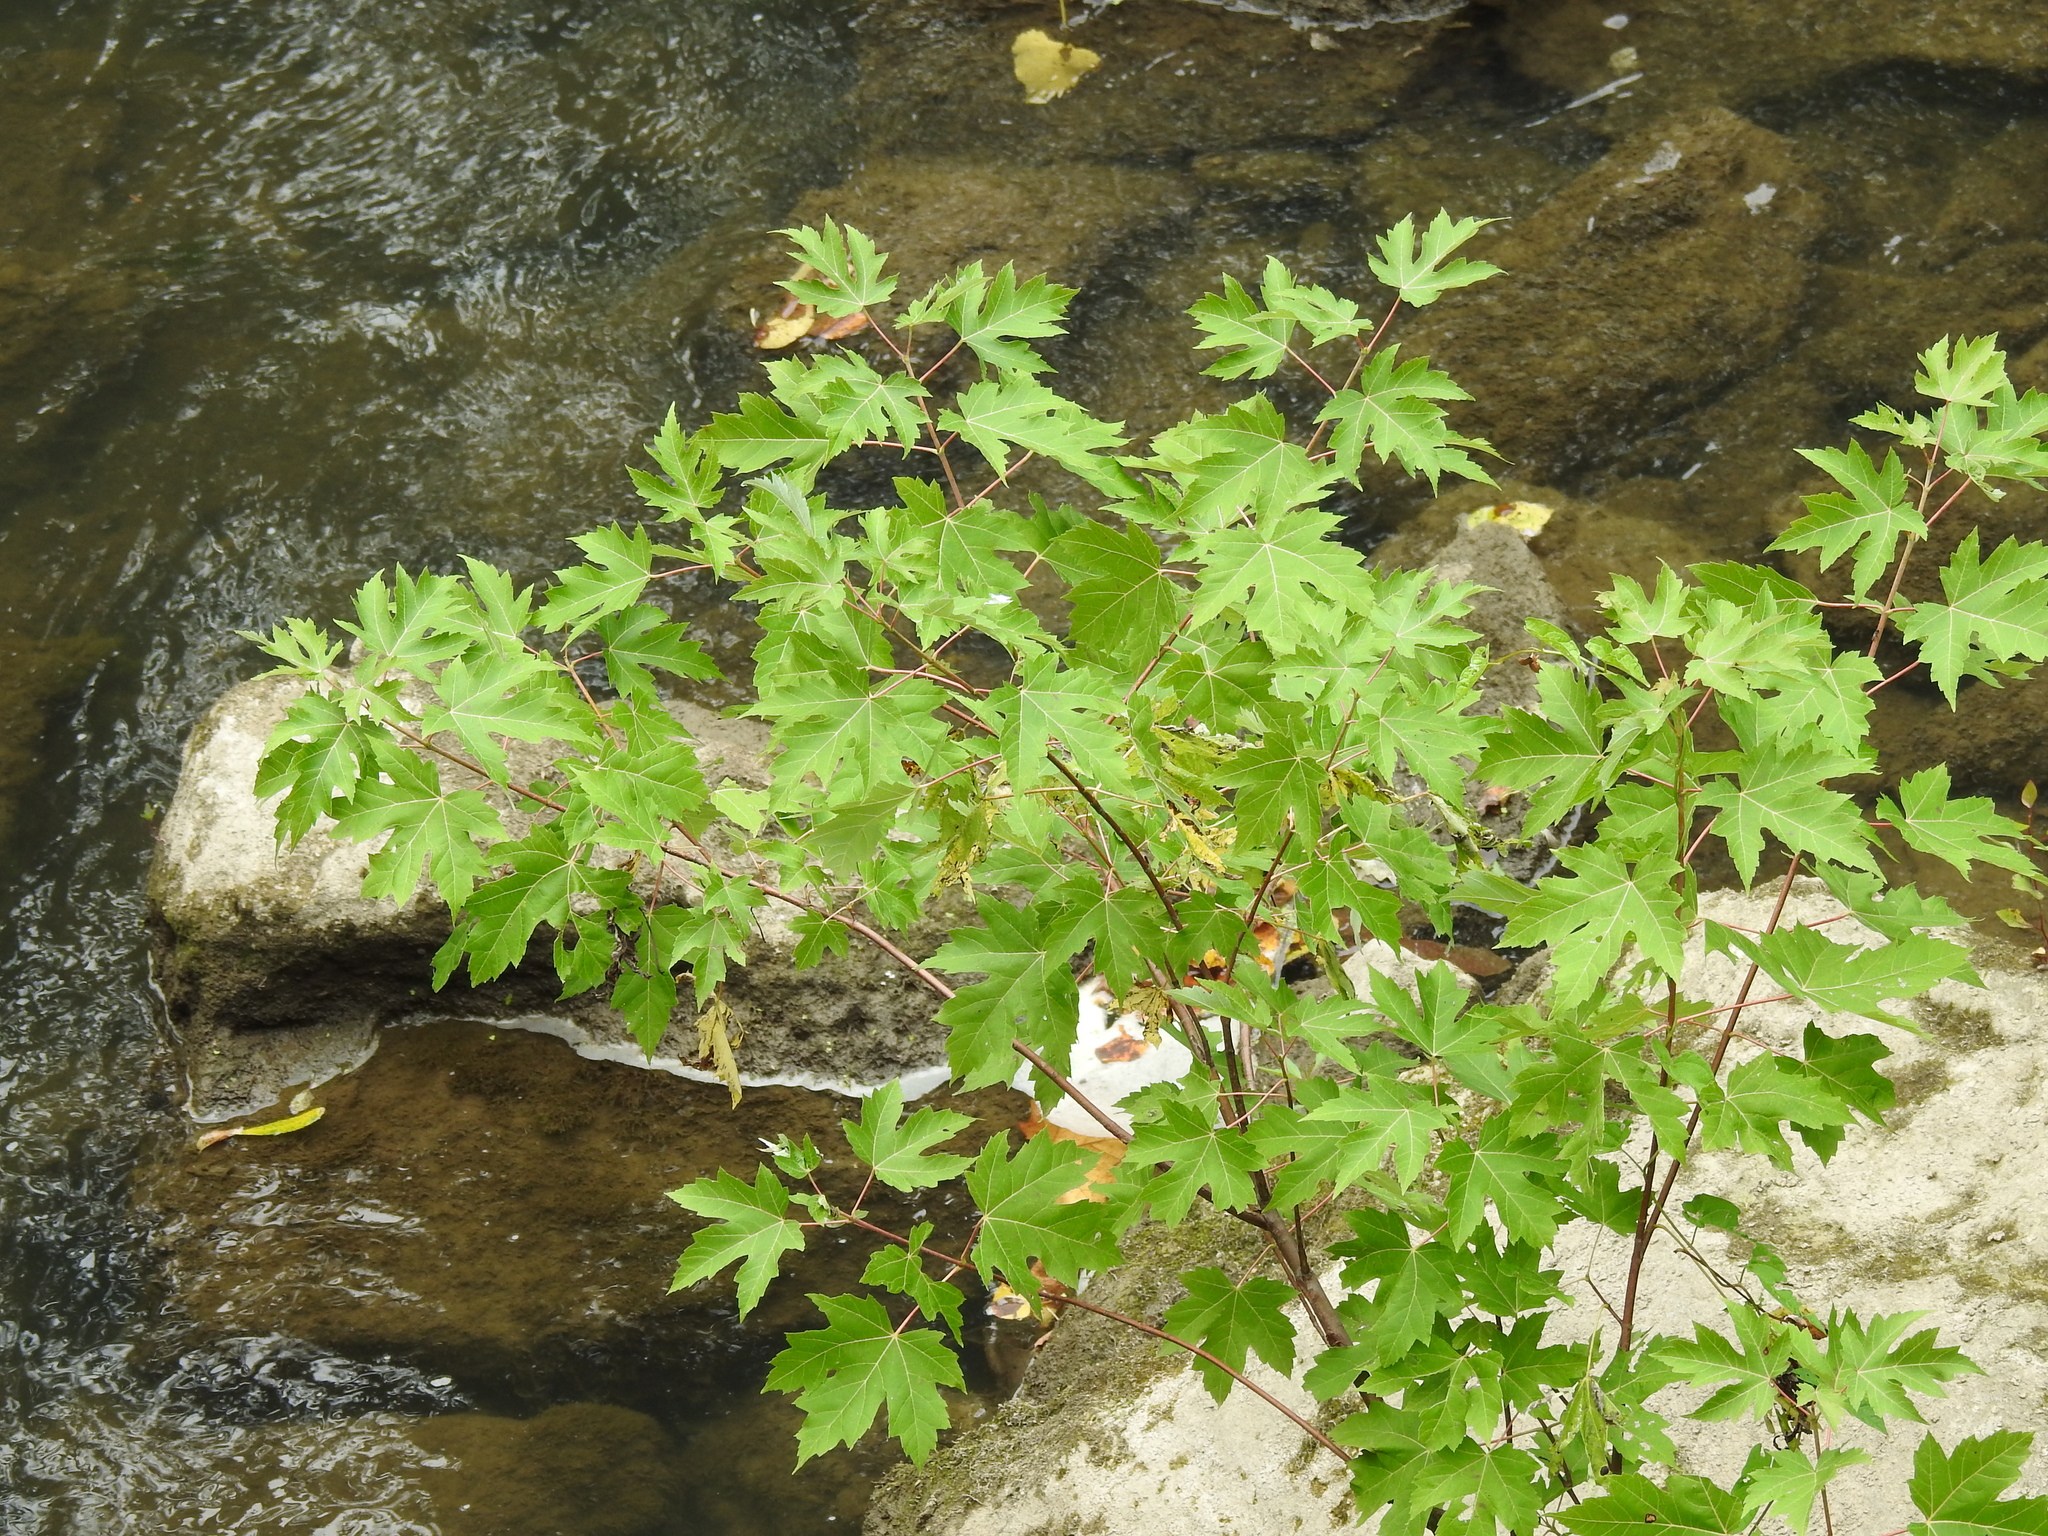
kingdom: Plantae
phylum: Tracheophyta
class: Magnoliopsida
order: Sapindales
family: Sapindaceae
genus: Acer
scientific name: Acer saccharinum
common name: Silver maple
